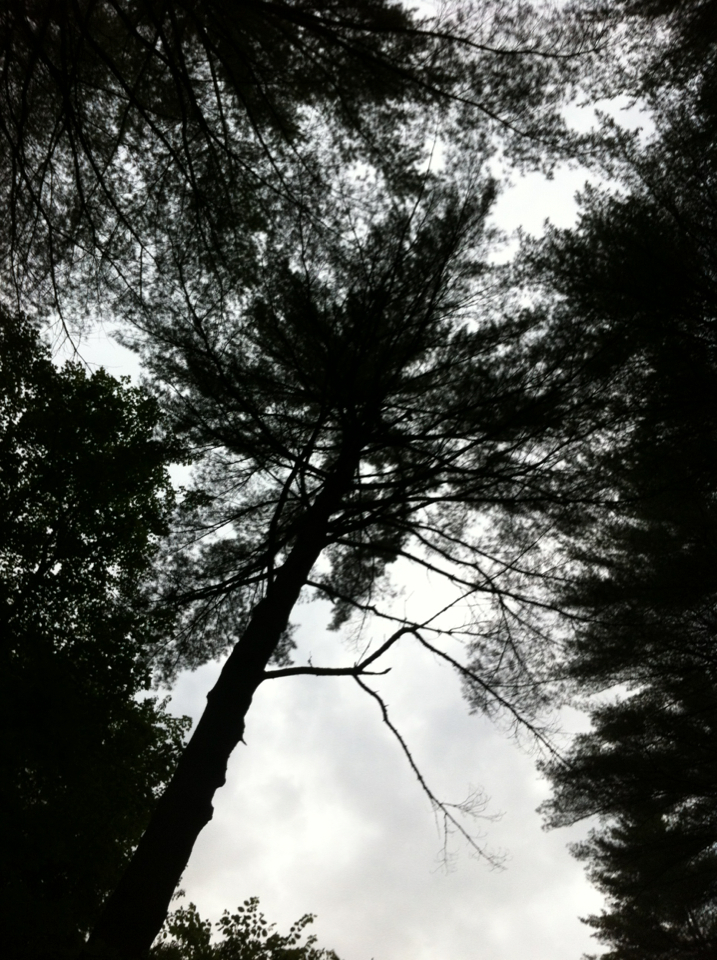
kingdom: Plantae
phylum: Tracheophyta
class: Pinopsida
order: Pinales
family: Pinaceae
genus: Pinus
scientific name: Pinus strobus
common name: Weymouth pine
